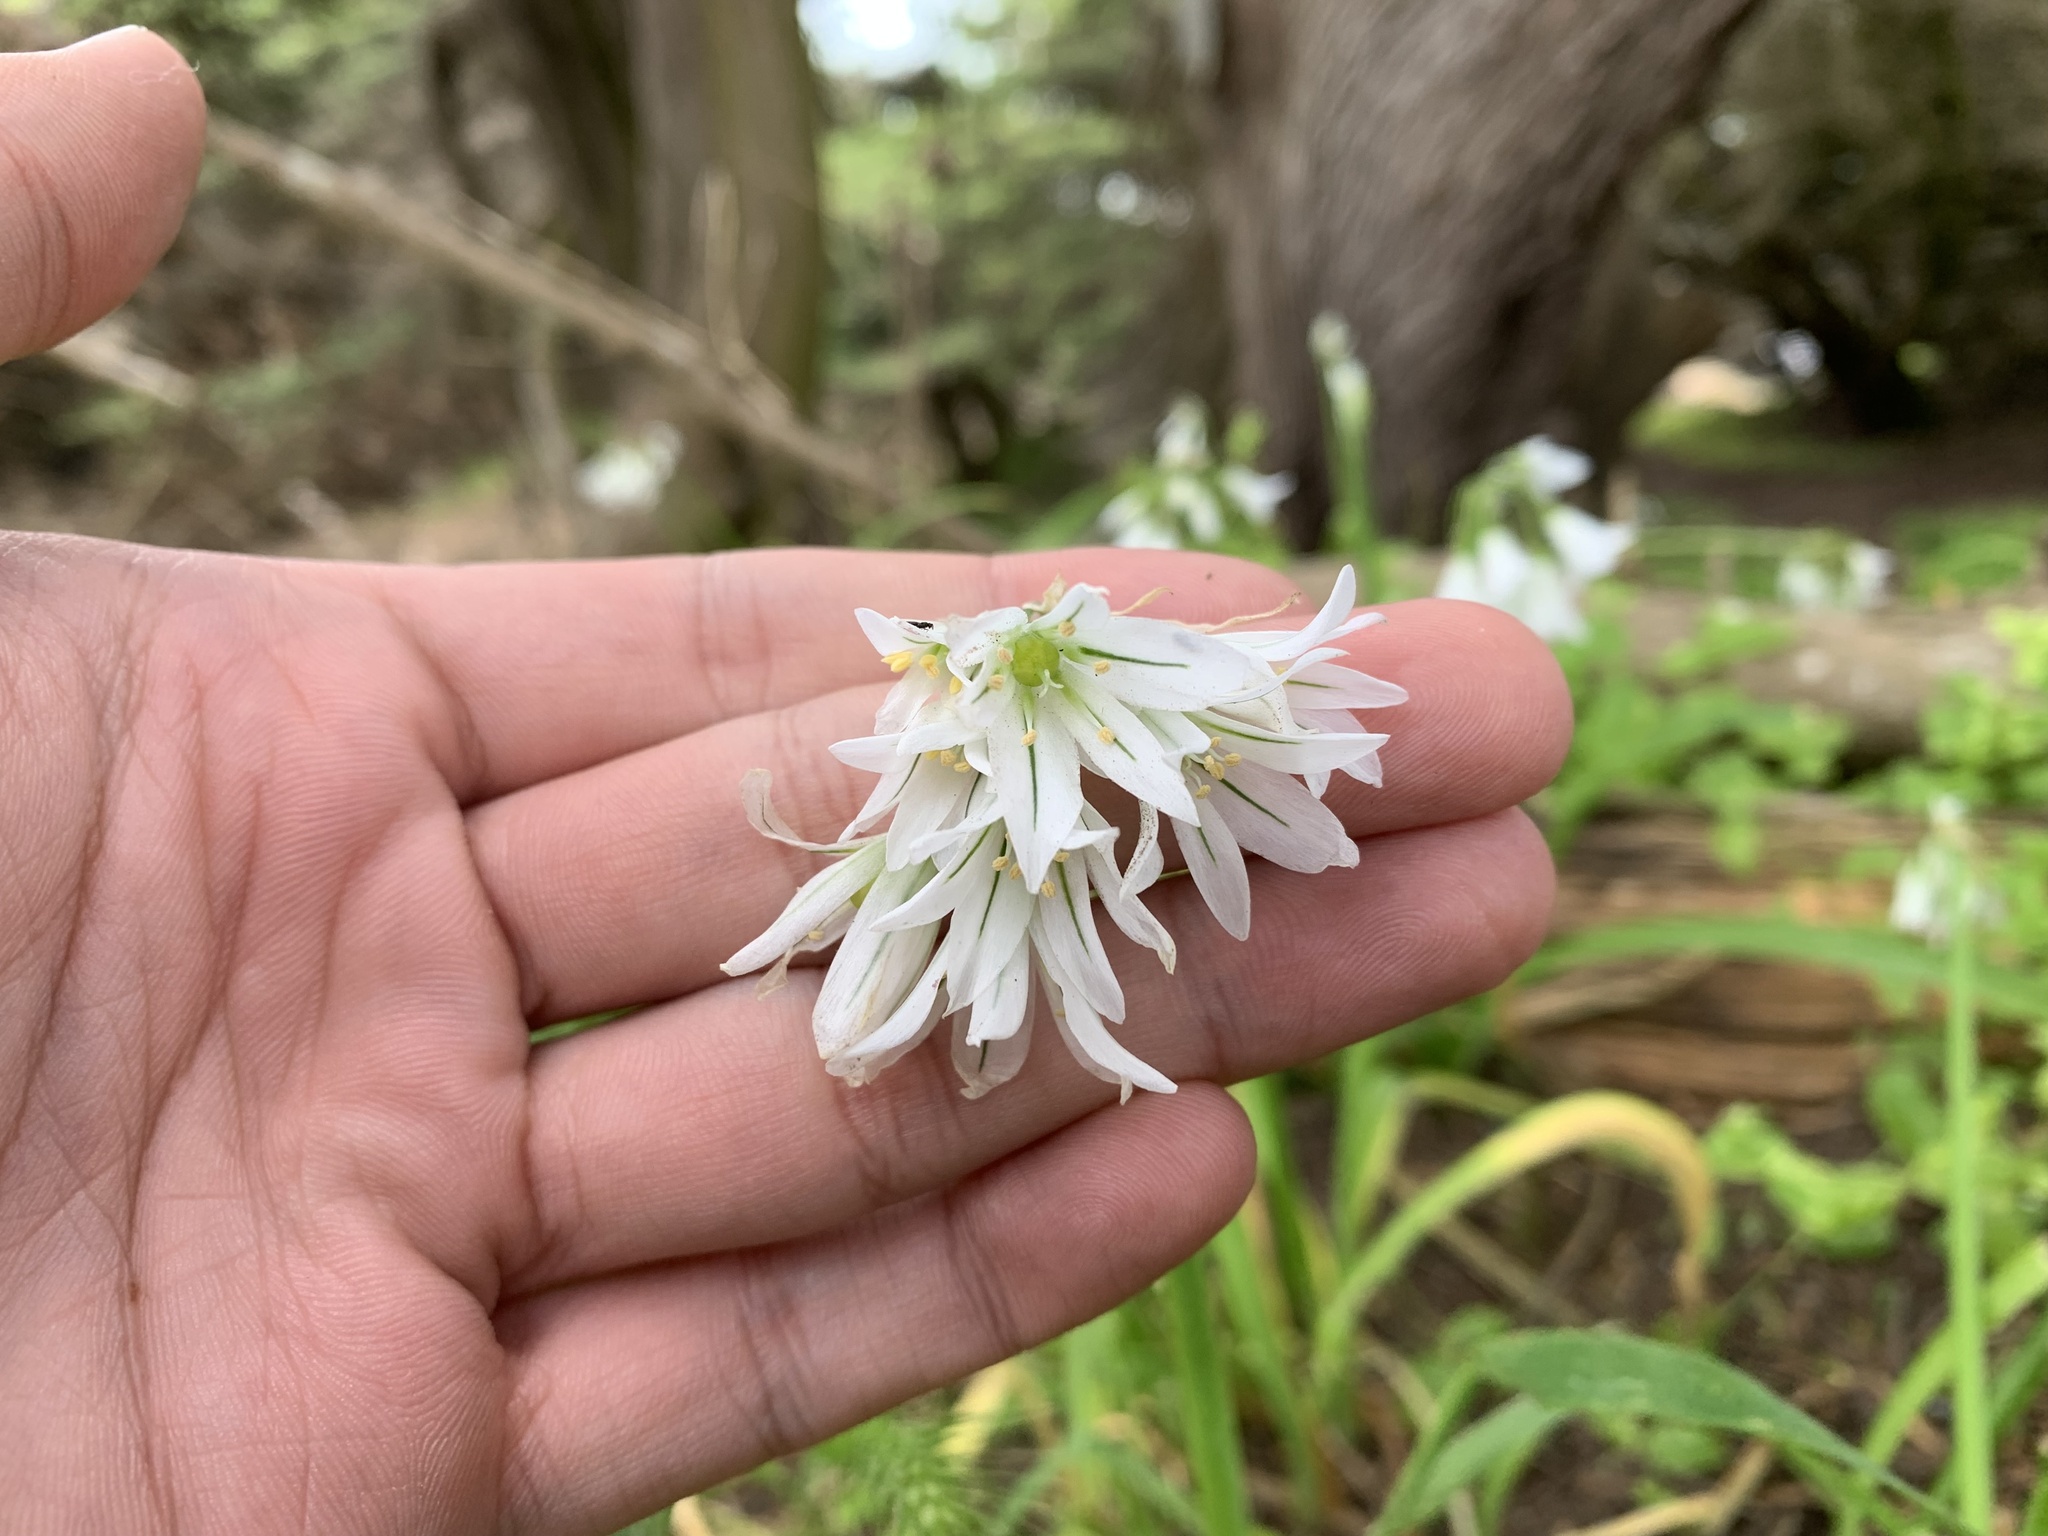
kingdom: Plantae
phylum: Tracheophyta
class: Liliopsida
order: Asparagales
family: Amaryllidaceae
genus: Allium
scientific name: Allium triquetrum
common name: Three-cornered garlic
